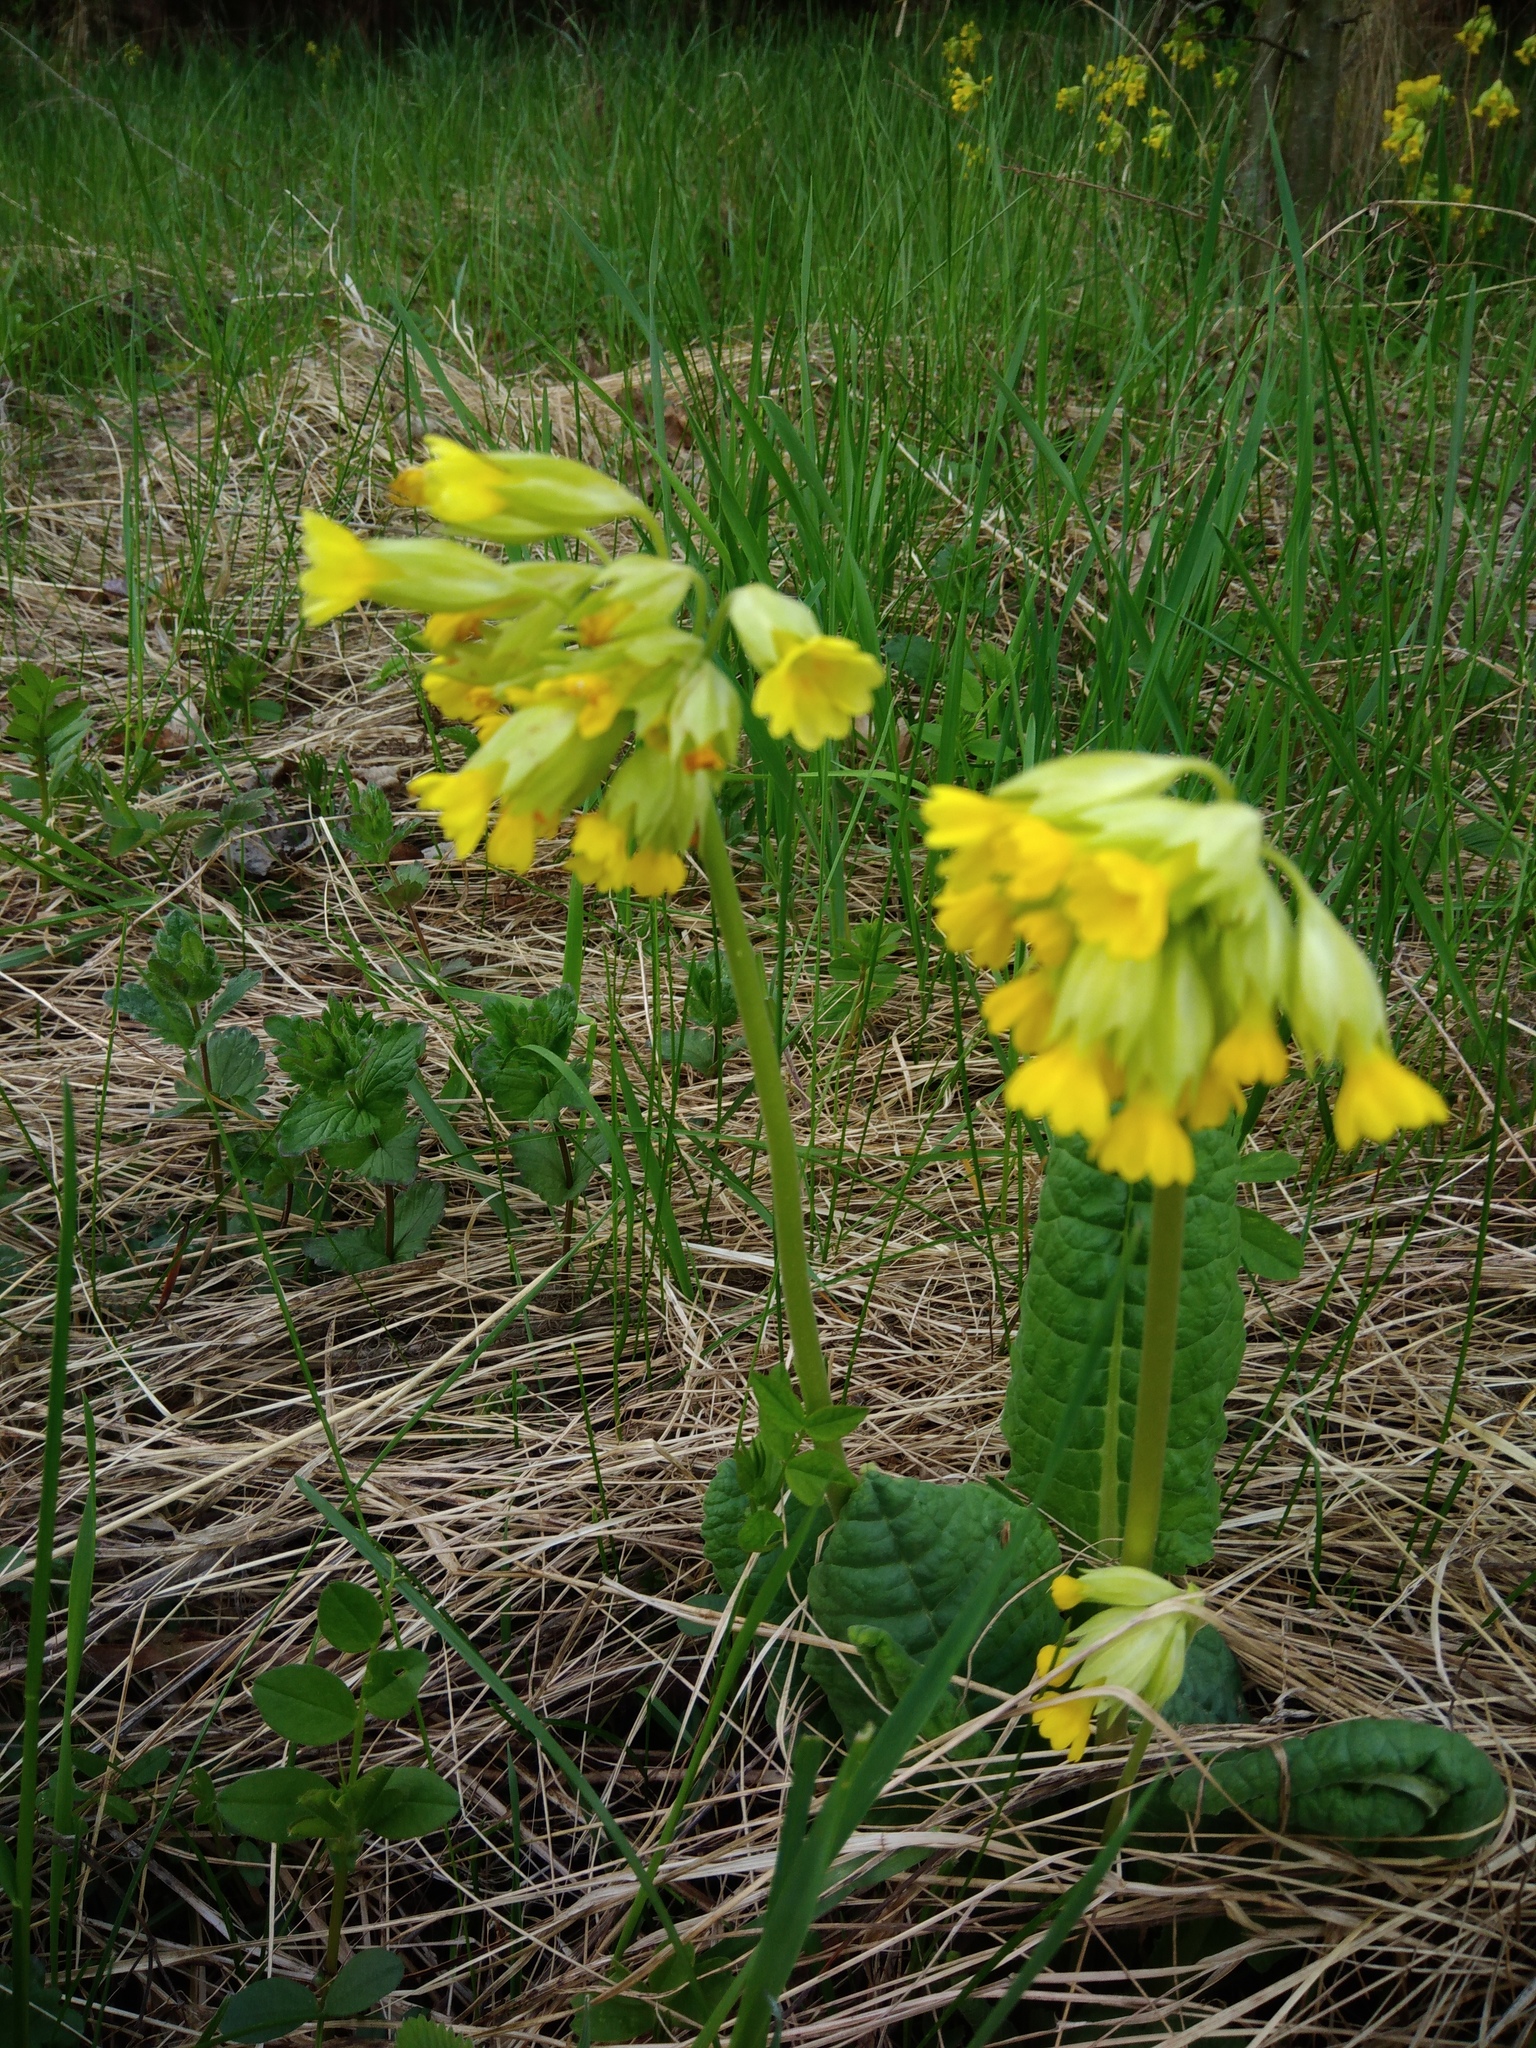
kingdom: Plantae
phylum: Tracheophyta
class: Magnoliopsida
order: Ericales
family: Primulaceae
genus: Primula
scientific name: Primula veris
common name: Cowslip
